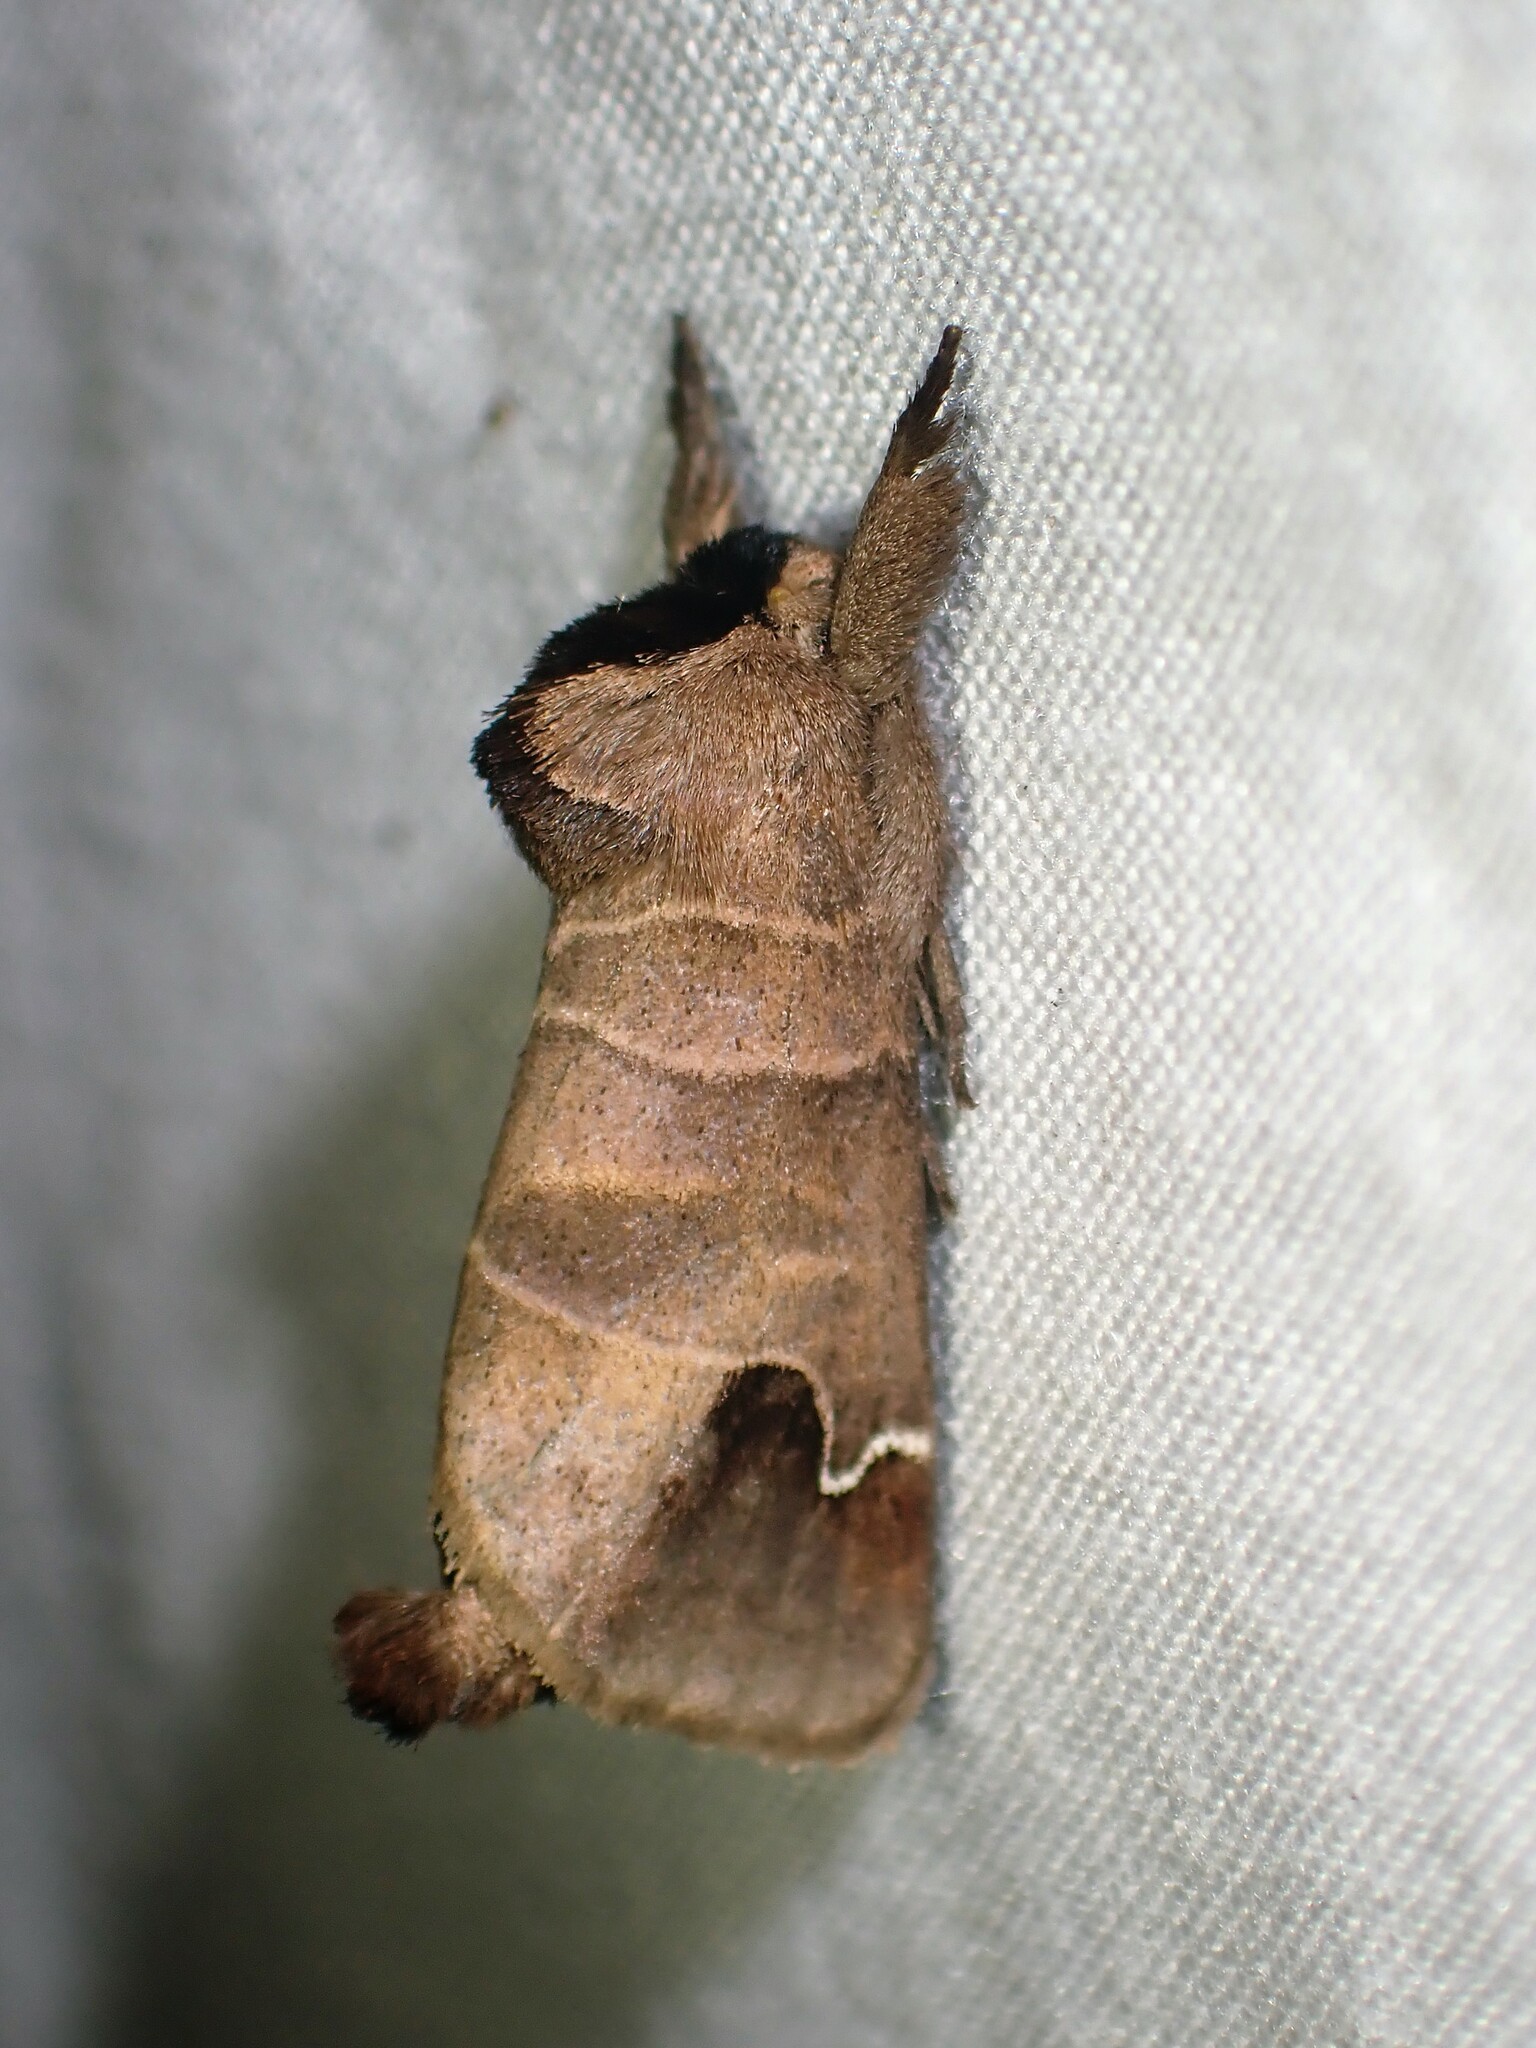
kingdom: Animalia
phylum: Arthropoda
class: Insecta
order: Lepidoptera
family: Notodontidae
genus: Clostera
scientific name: Clostera albosigma
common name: Sigmoid prominent
